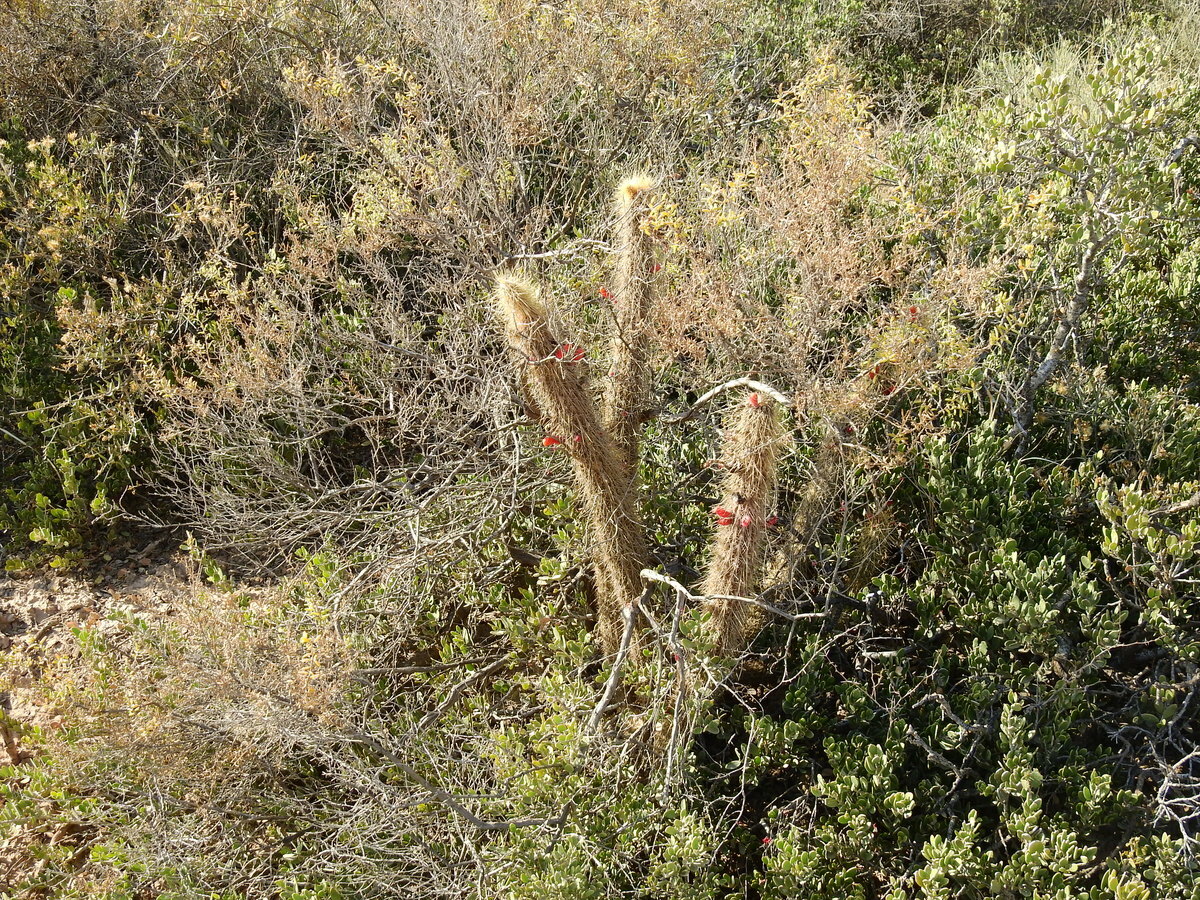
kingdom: Plantae
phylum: Tracheophyta
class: Magnoliopsida
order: Caryophyllales
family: Cactaceae
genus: Cleistocactus
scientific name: Cleistocactus baumannii
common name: Scarlet-bugler
